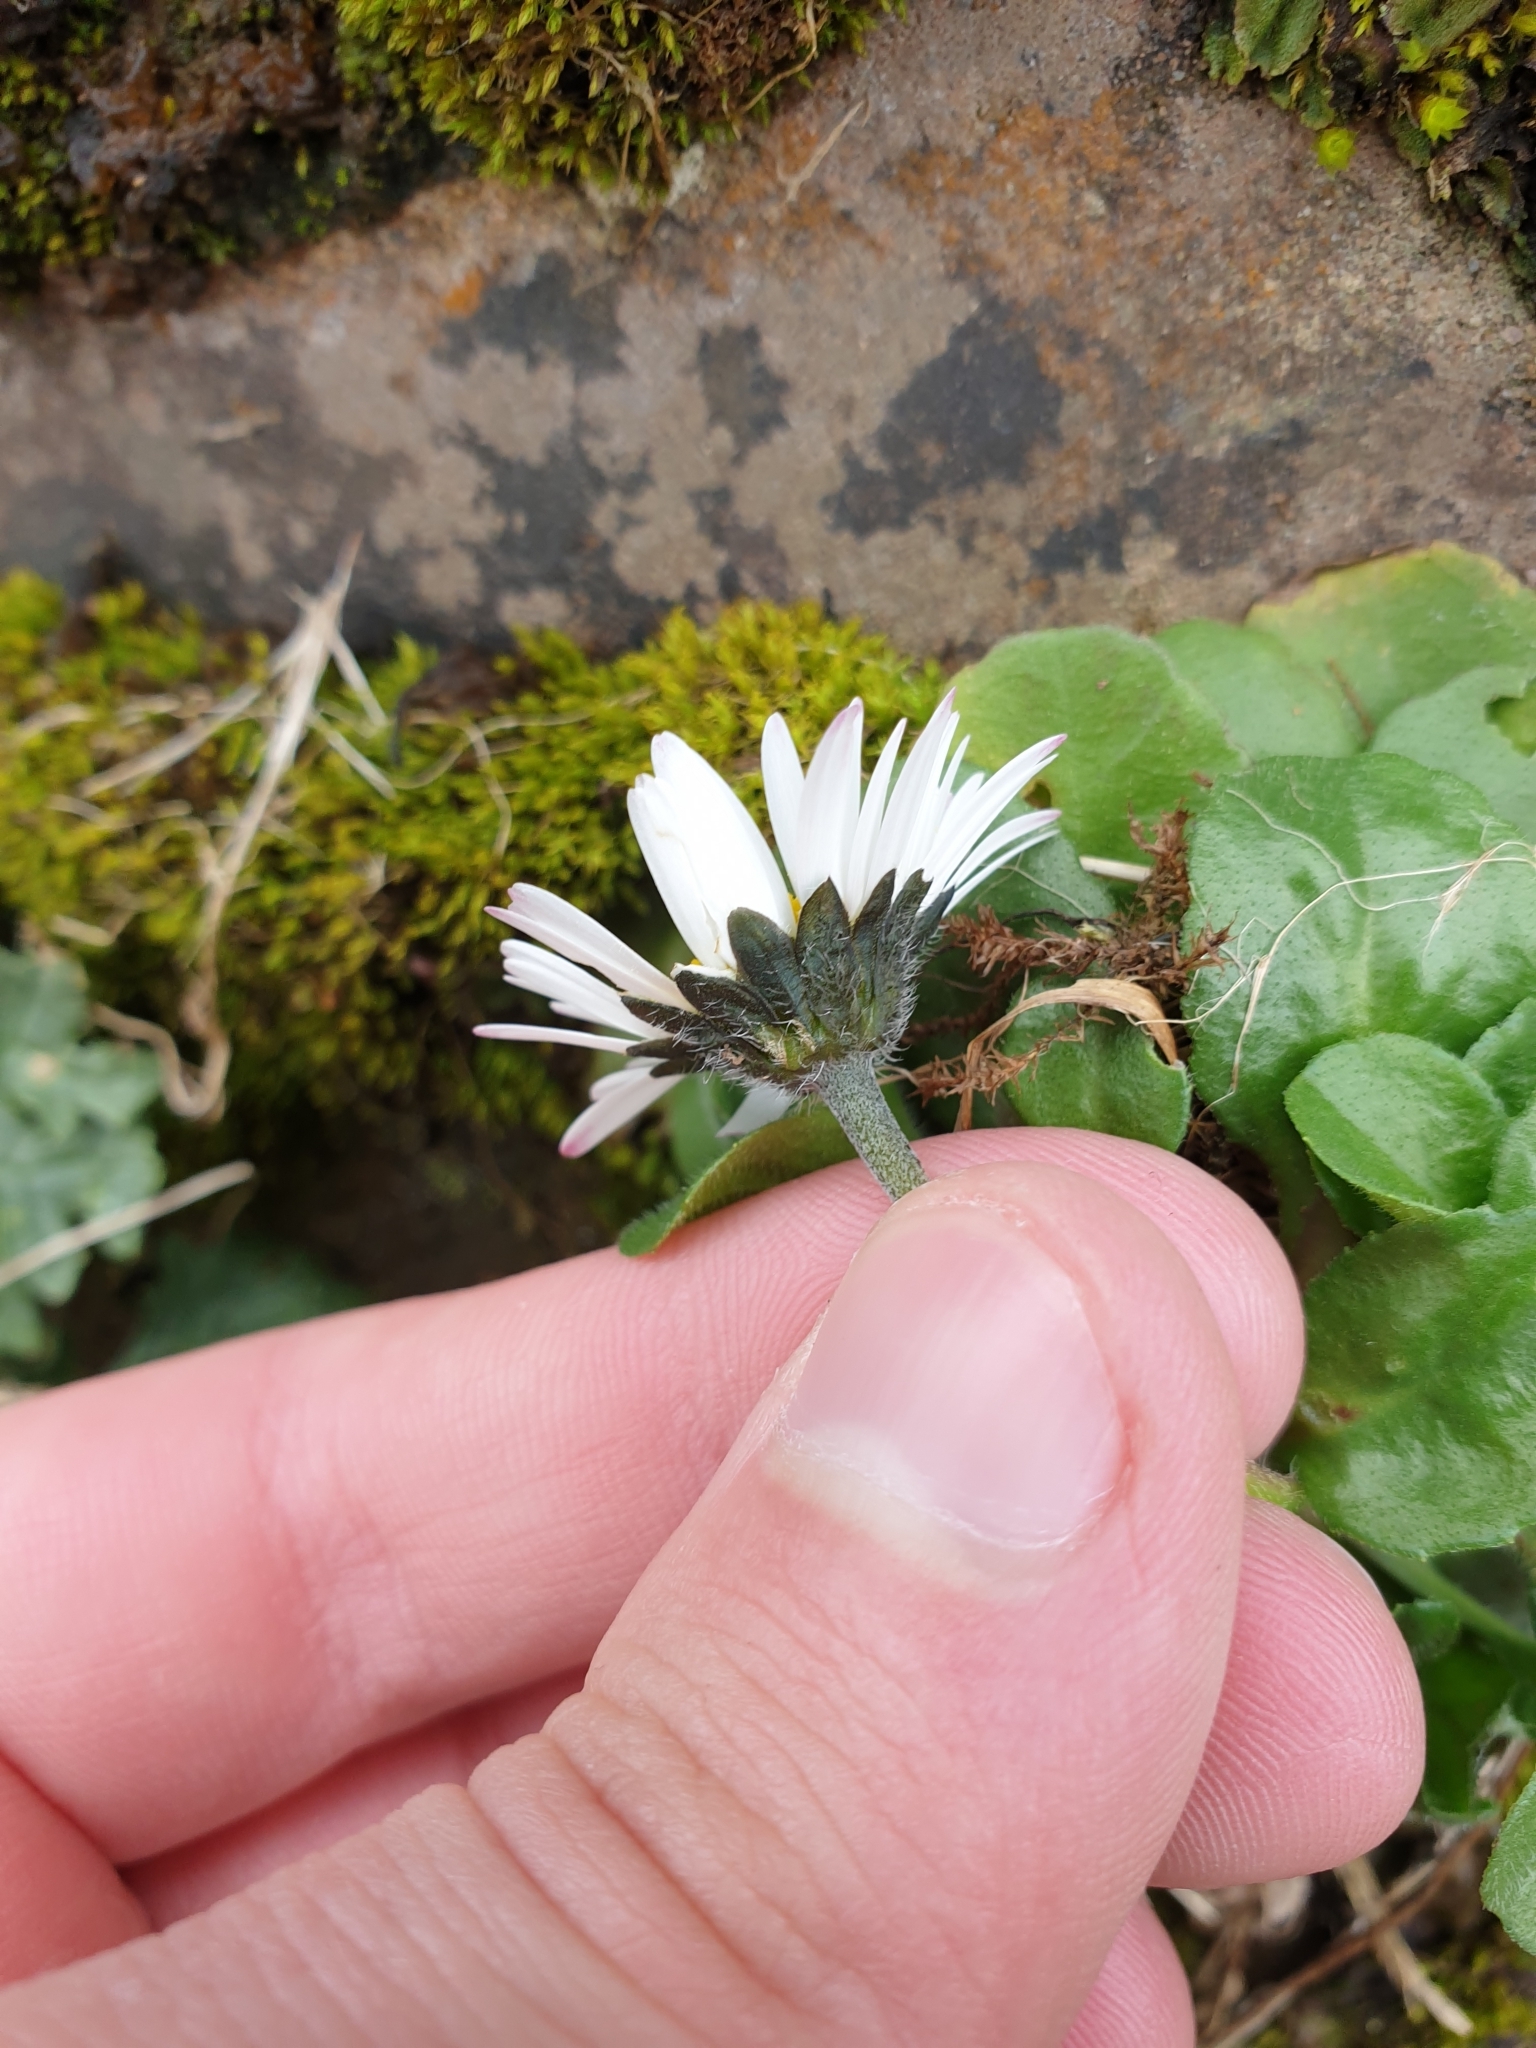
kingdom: Plantae
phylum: Tracheophyta
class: Magnoliopsida
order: Asterales
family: Asteraceae
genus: Bellis
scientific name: Bellis perennis
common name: Lawndaisy
